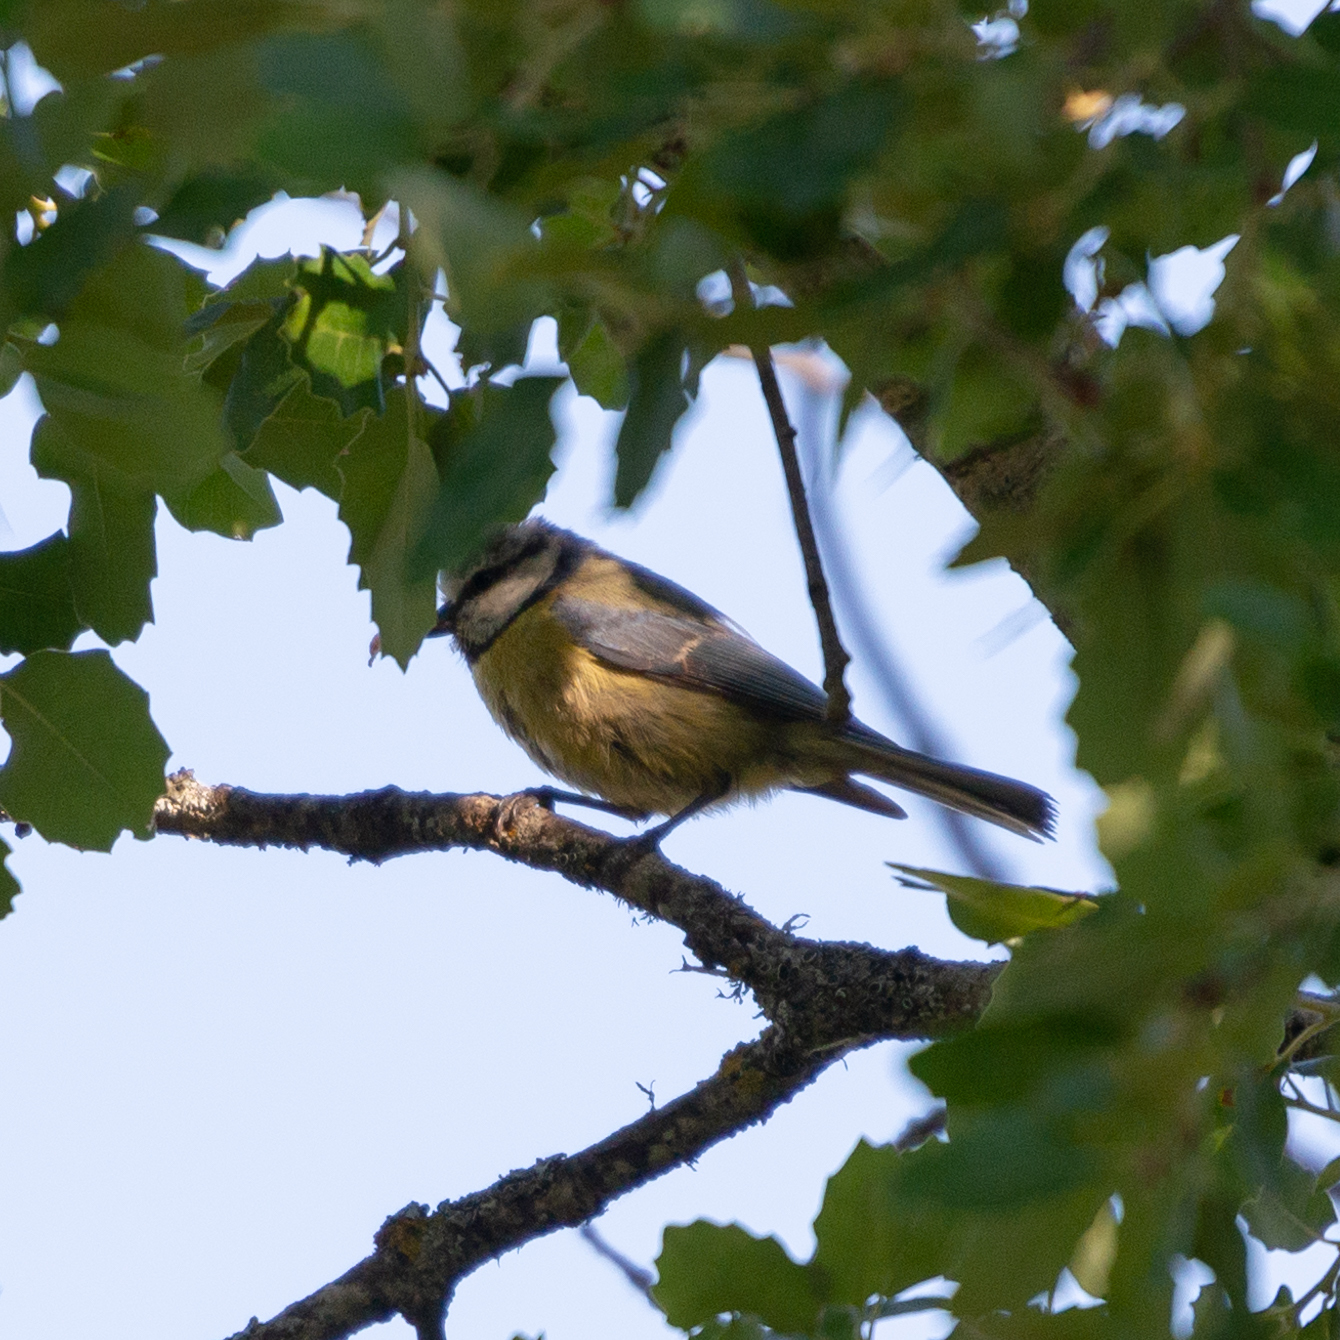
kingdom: Animalia
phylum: Chordata
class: Aves
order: Passeriformes
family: Paridae
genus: Cyanistes
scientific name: Cyanistes caeruleus
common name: Eurasian blue tit
